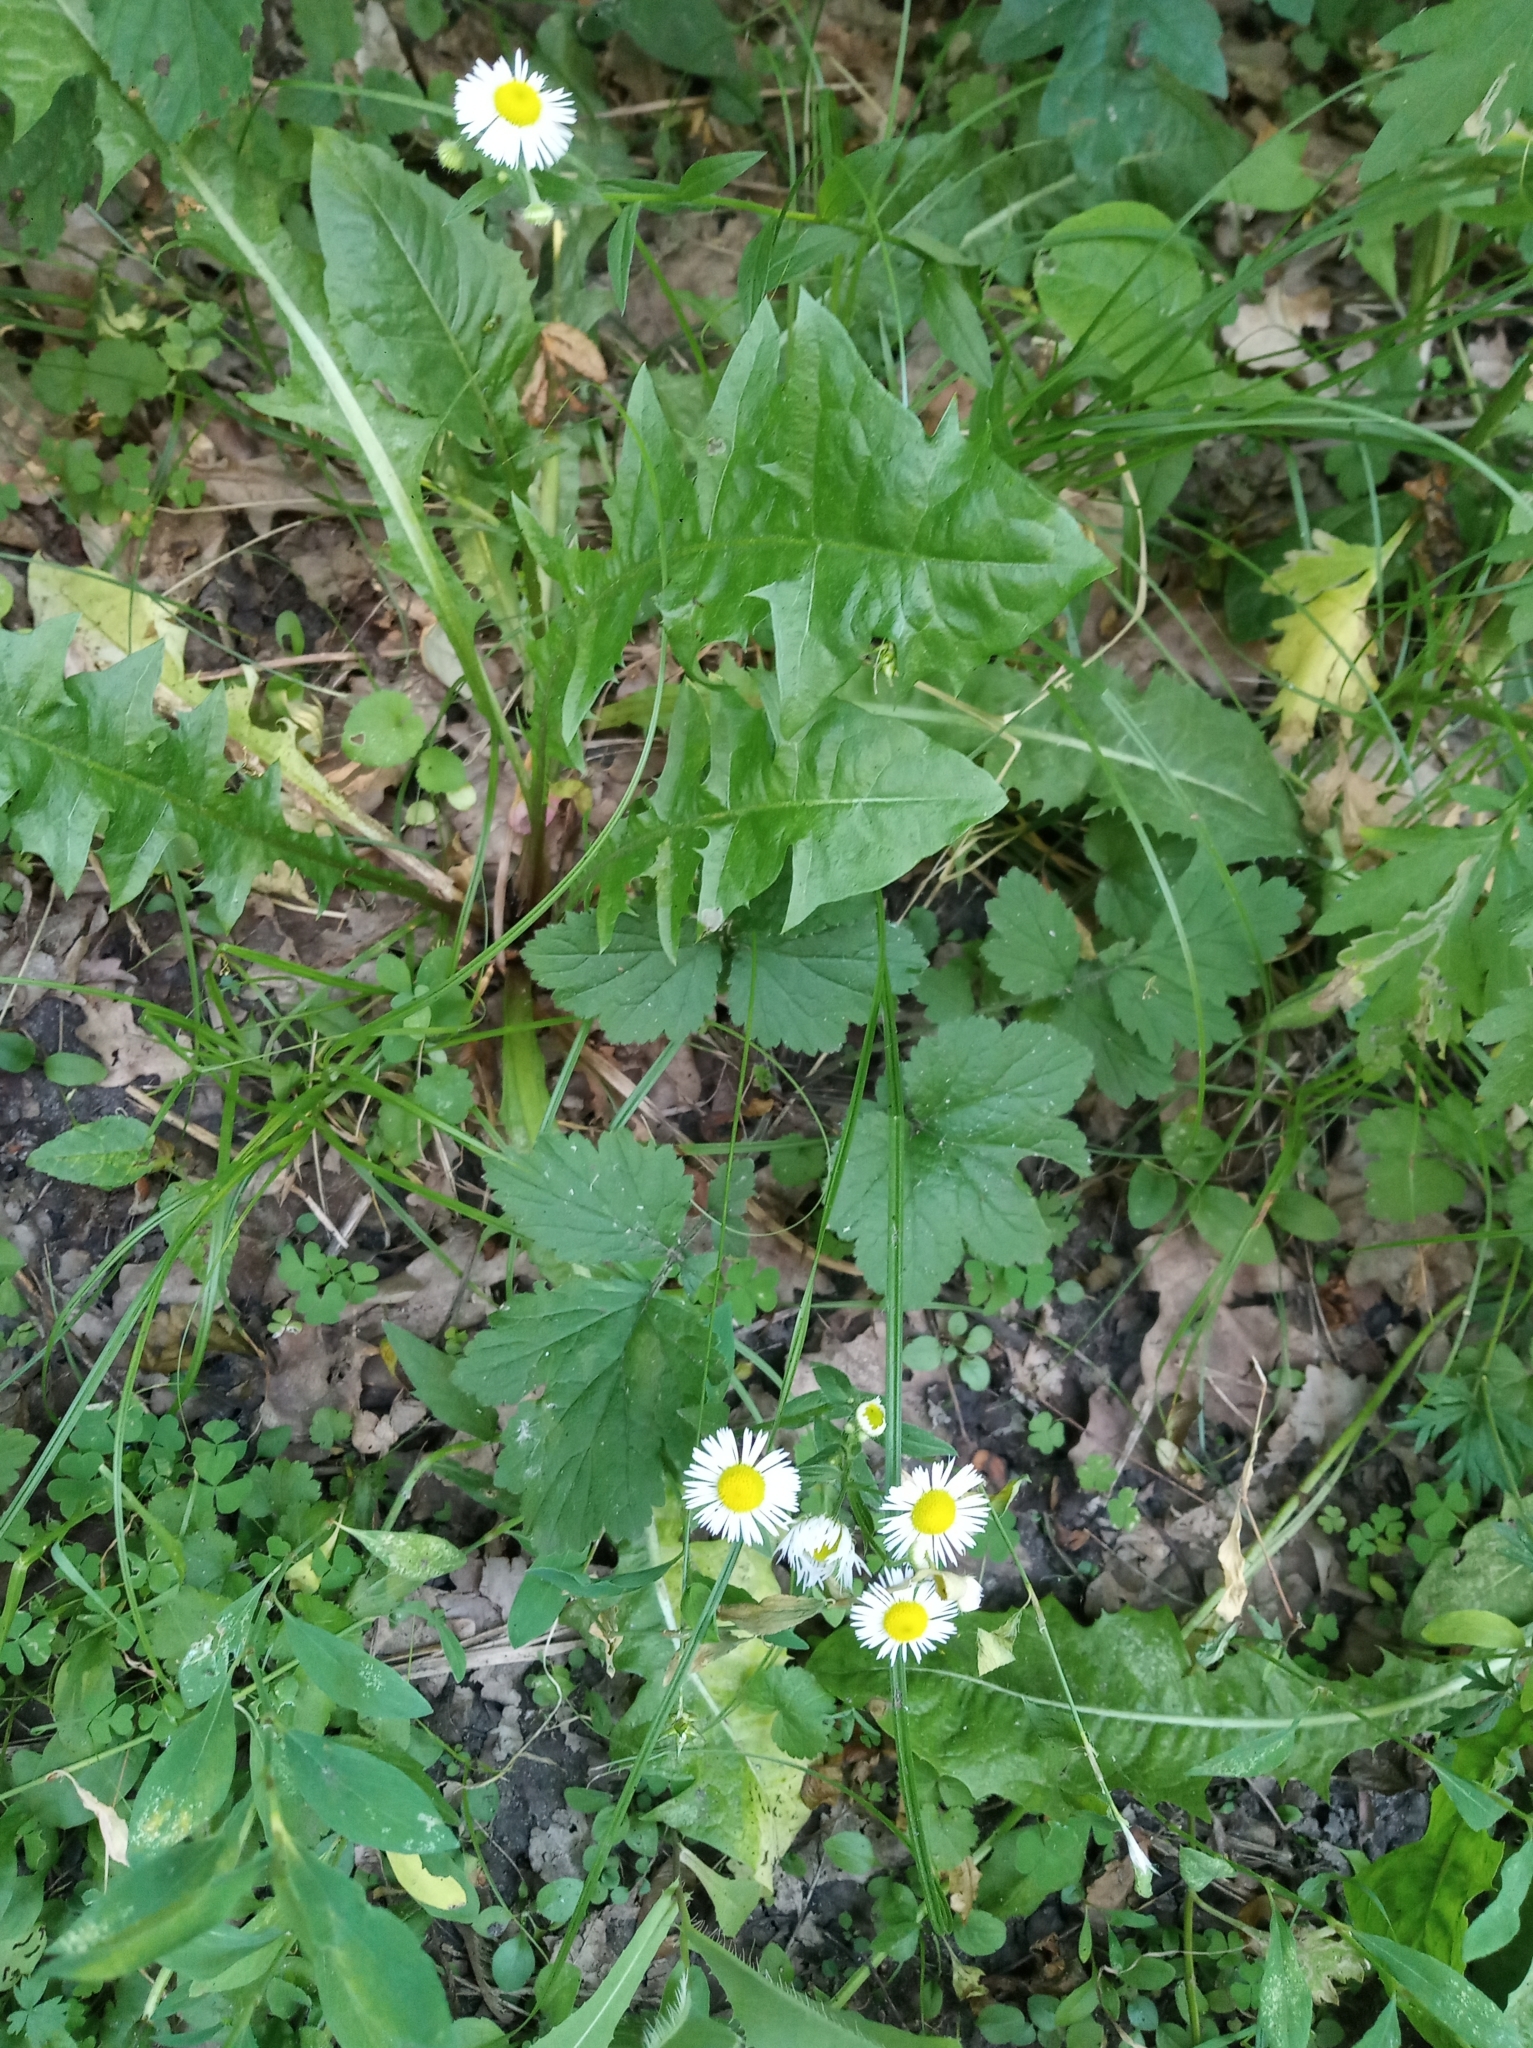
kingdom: Plantae
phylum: Tracheophyta
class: Magnoliopsida
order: Asterales
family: Asteraceae
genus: Erigeron
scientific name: Erigeron annuus
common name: Tall fleabane
